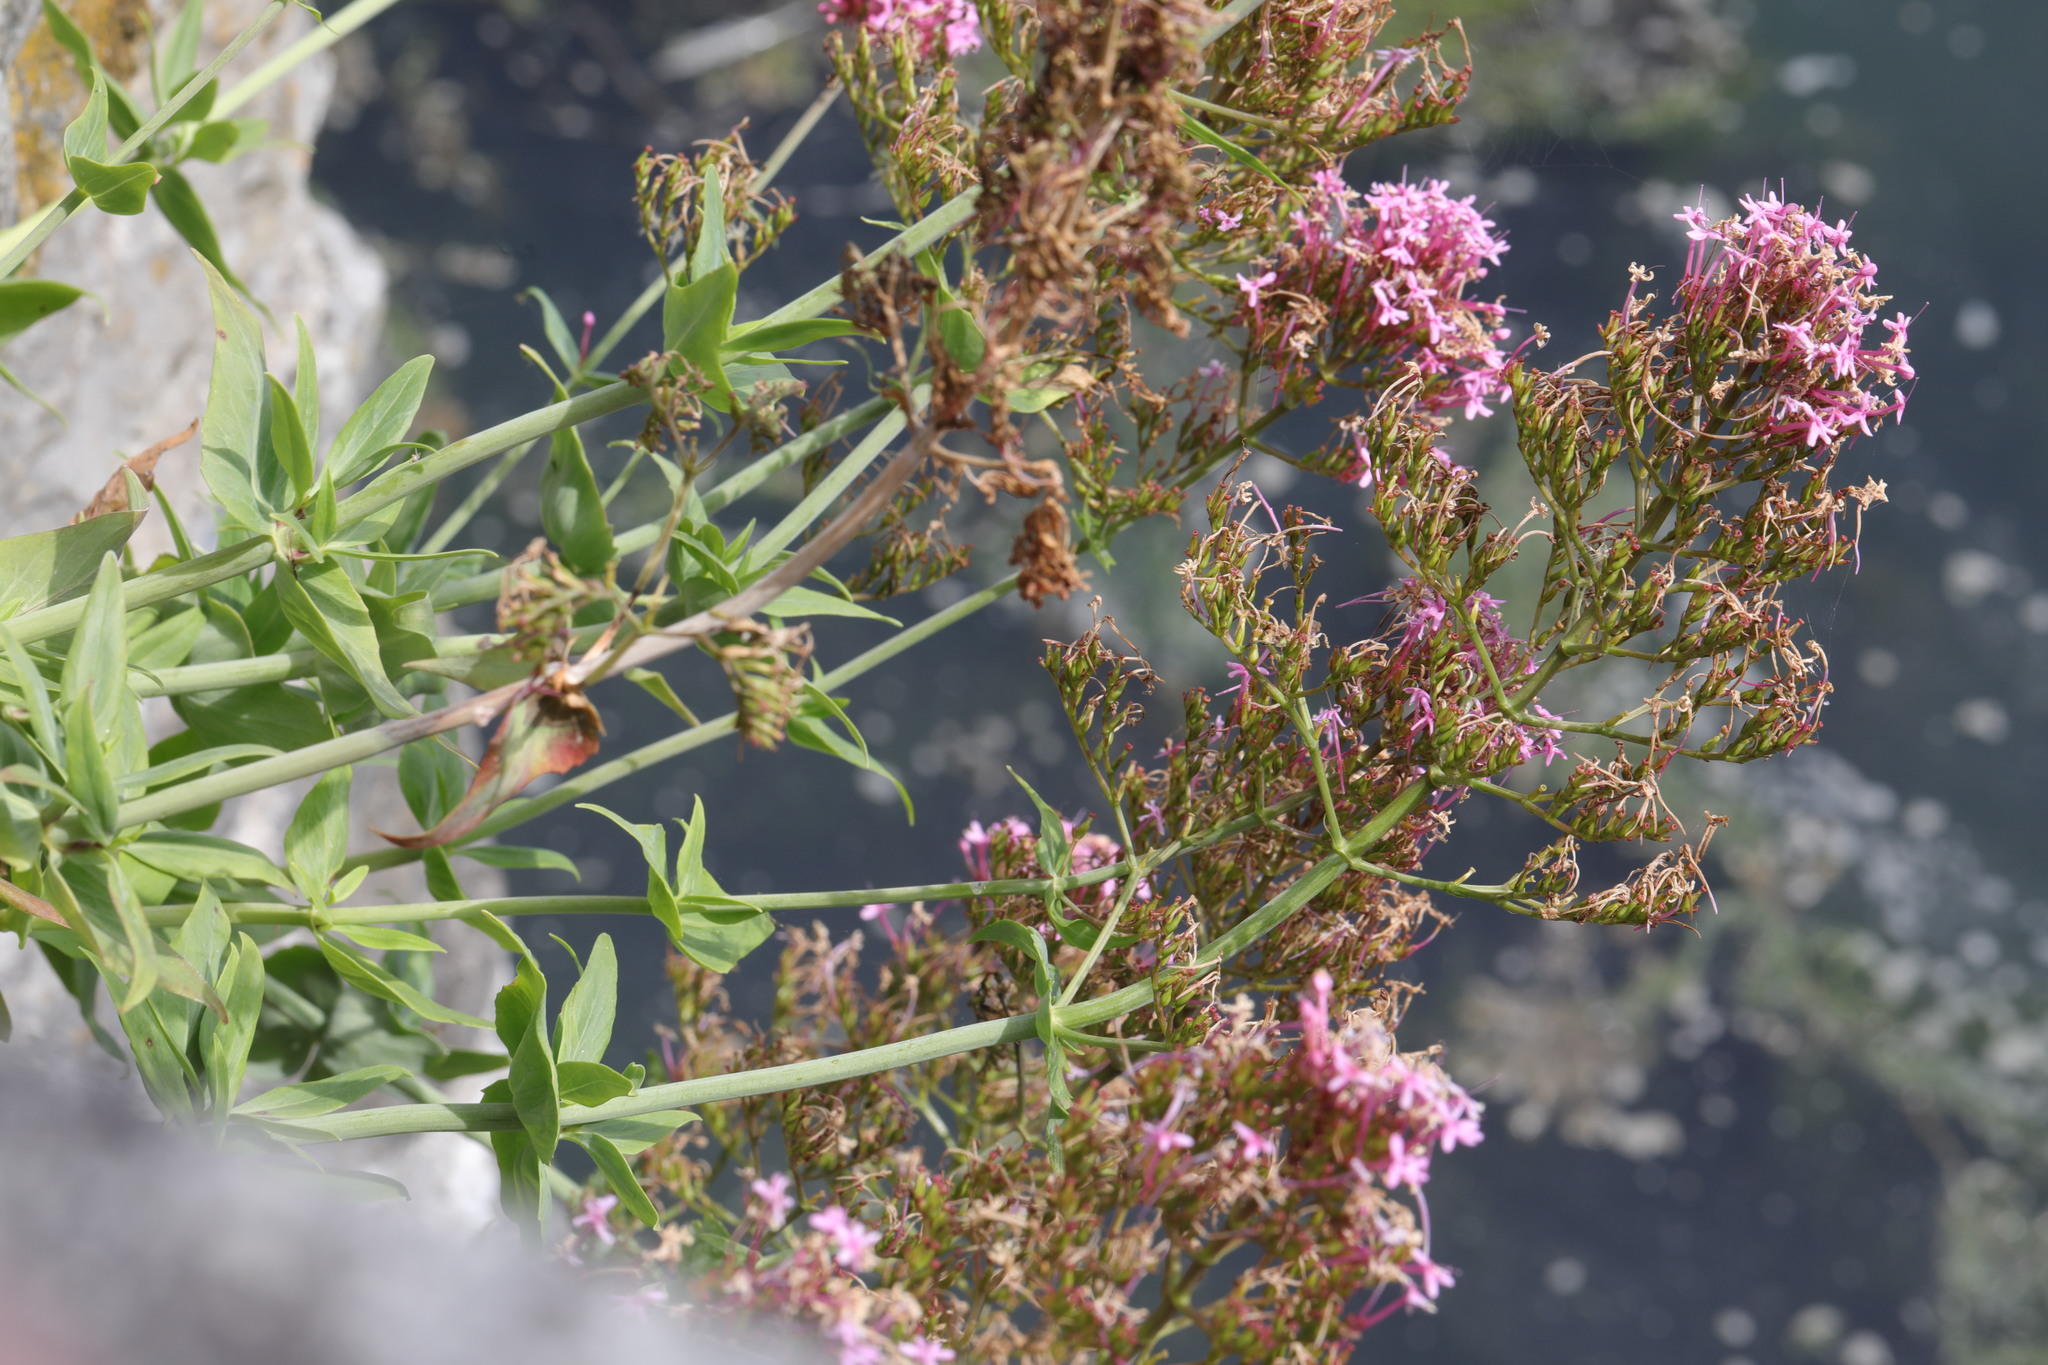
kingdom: Plantae
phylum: Tracheophyta
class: Magnoliopsida
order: Dipsacales
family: Caprifoliaceae
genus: Centranthus
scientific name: Centranthus ruber
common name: Red valerian
